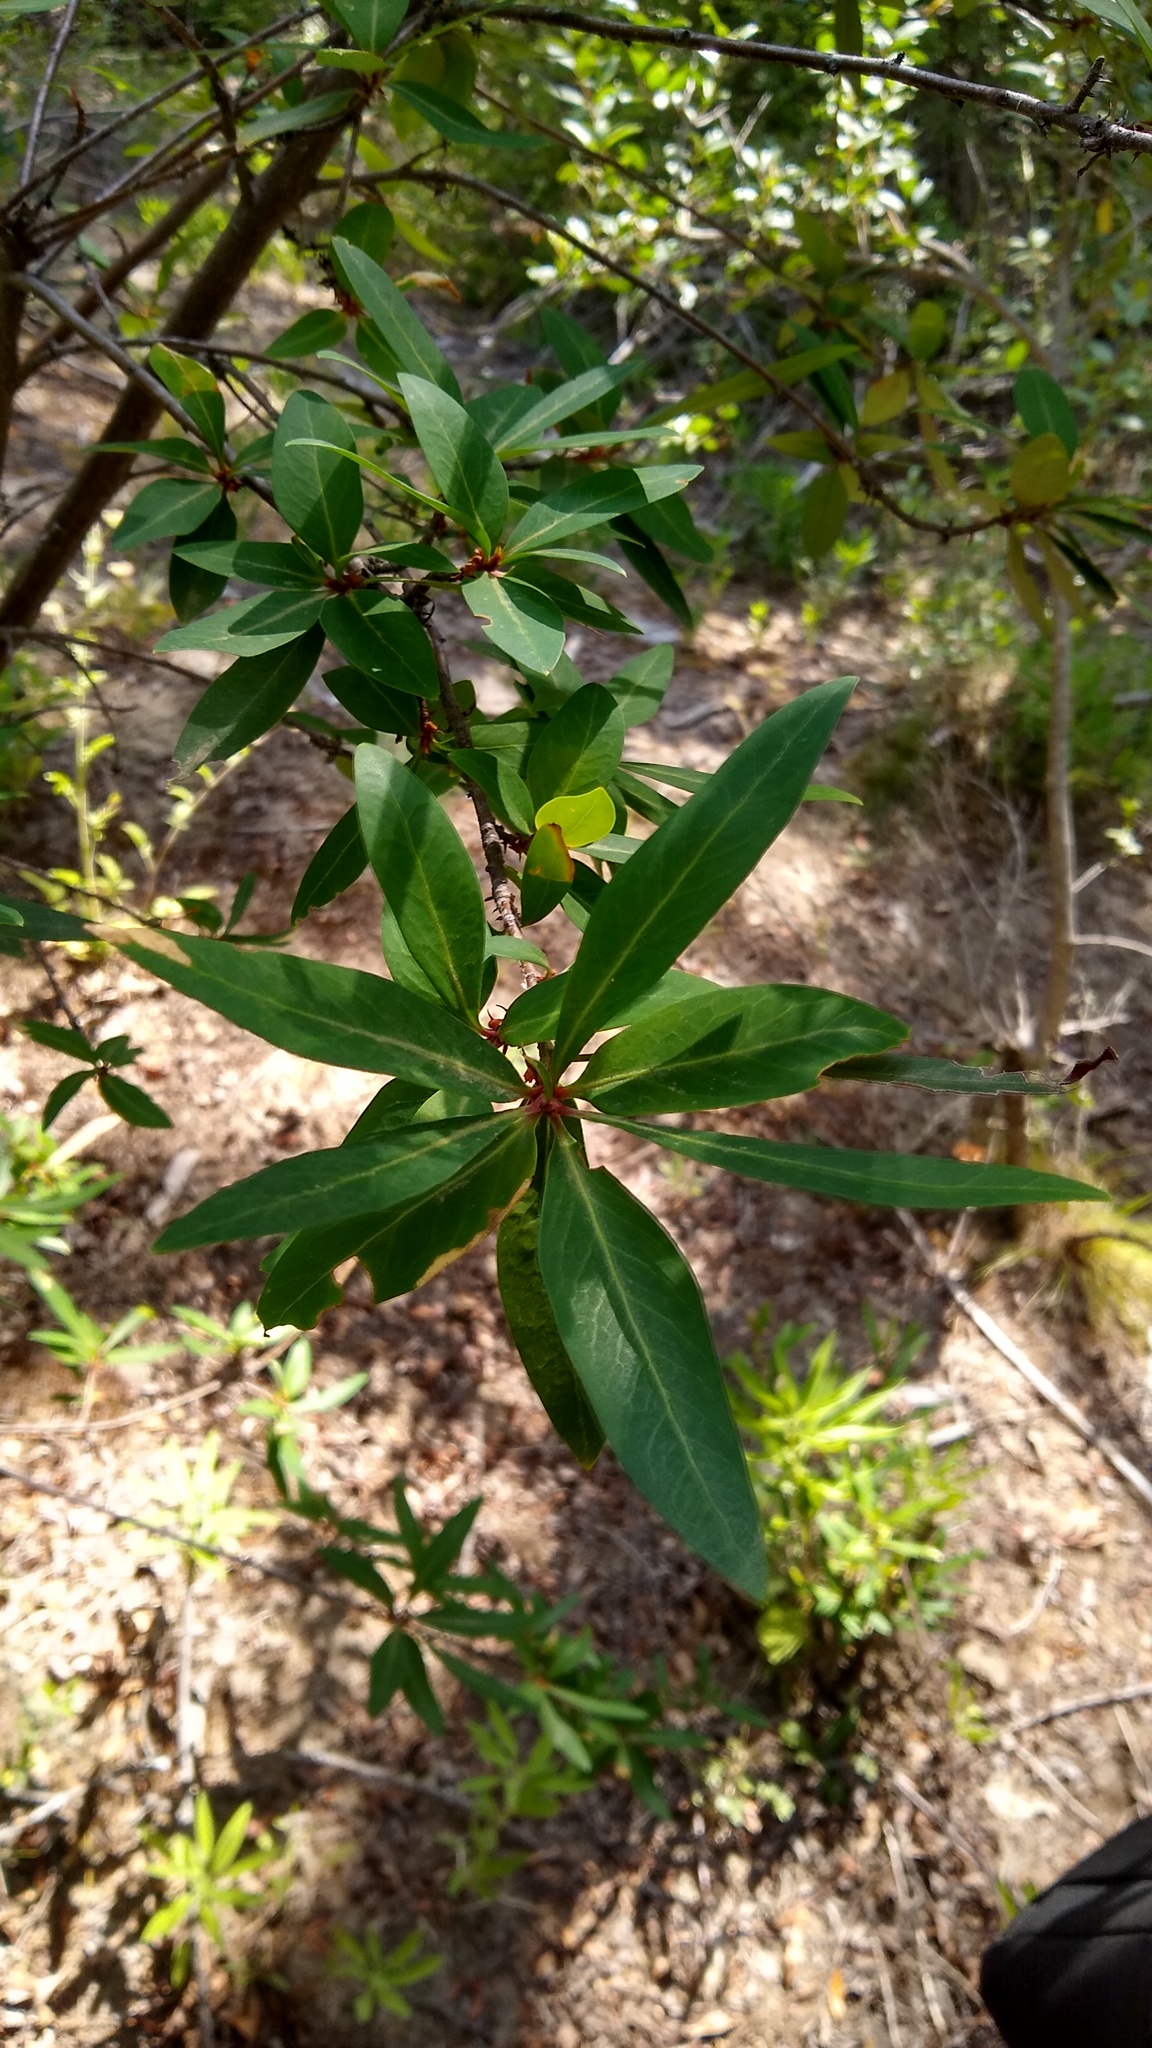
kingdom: Plantae
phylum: Tracheophyta
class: Magnoliopsida
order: Proteales
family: Proteaceae
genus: Embothrium
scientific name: Embothrium coccineum
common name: Chilean firebush
